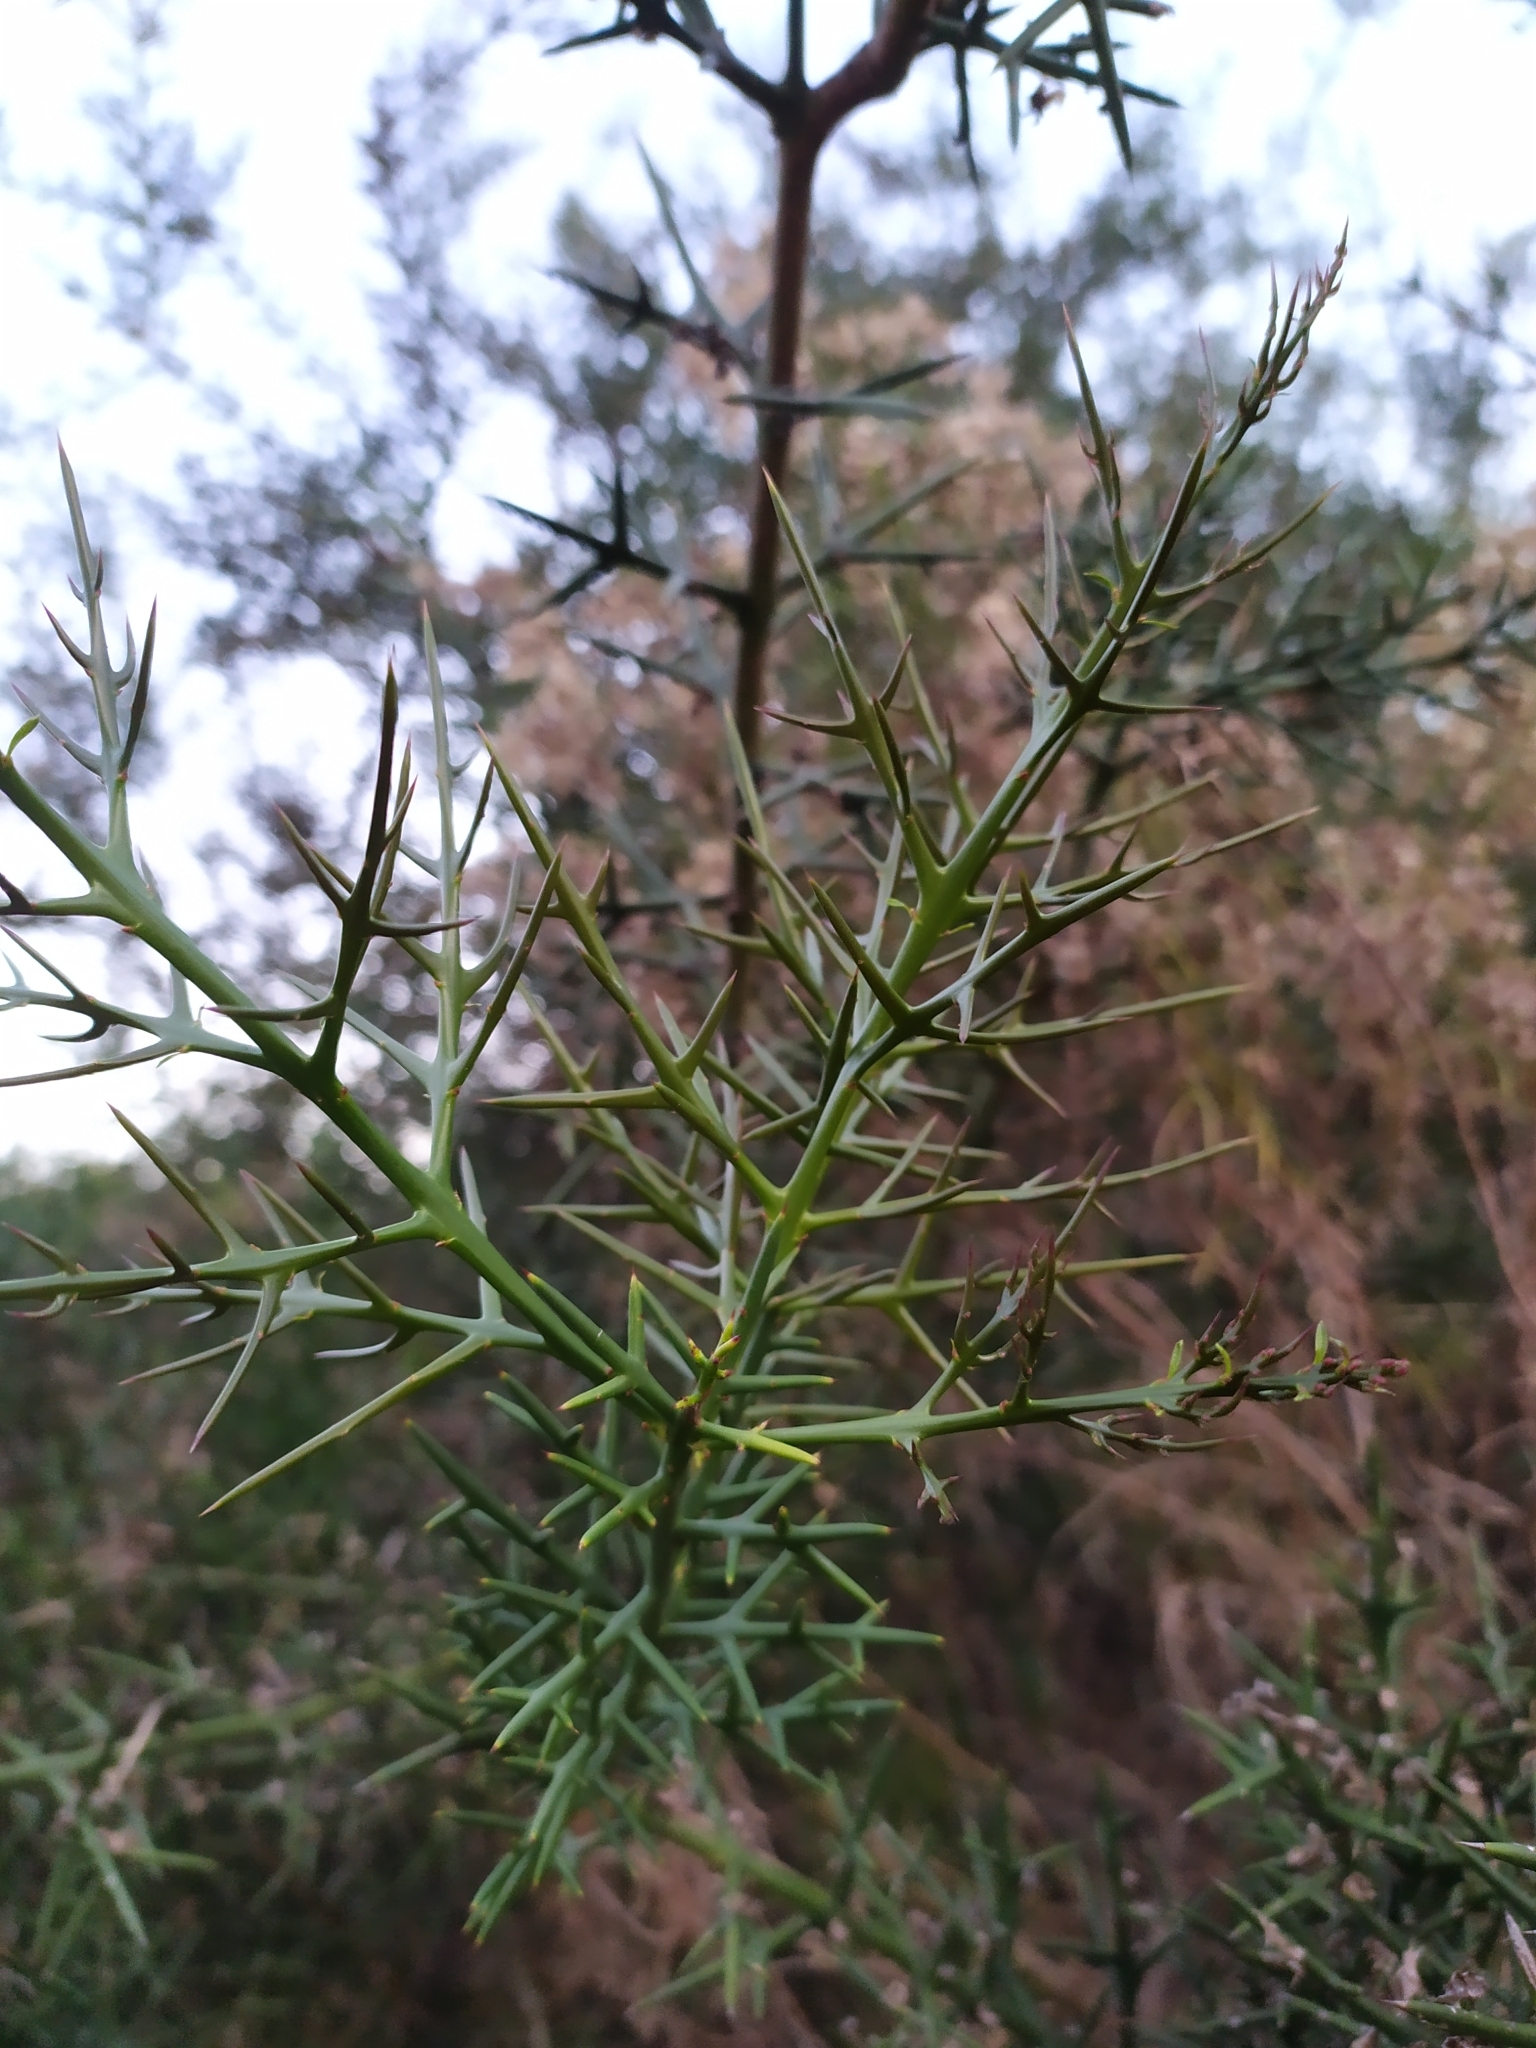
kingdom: Plantae
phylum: Tracheophyta
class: Magnoliopsida
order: Rosales
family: Rhamnaceae
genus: Colletia
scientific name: Colletia spinosissima
